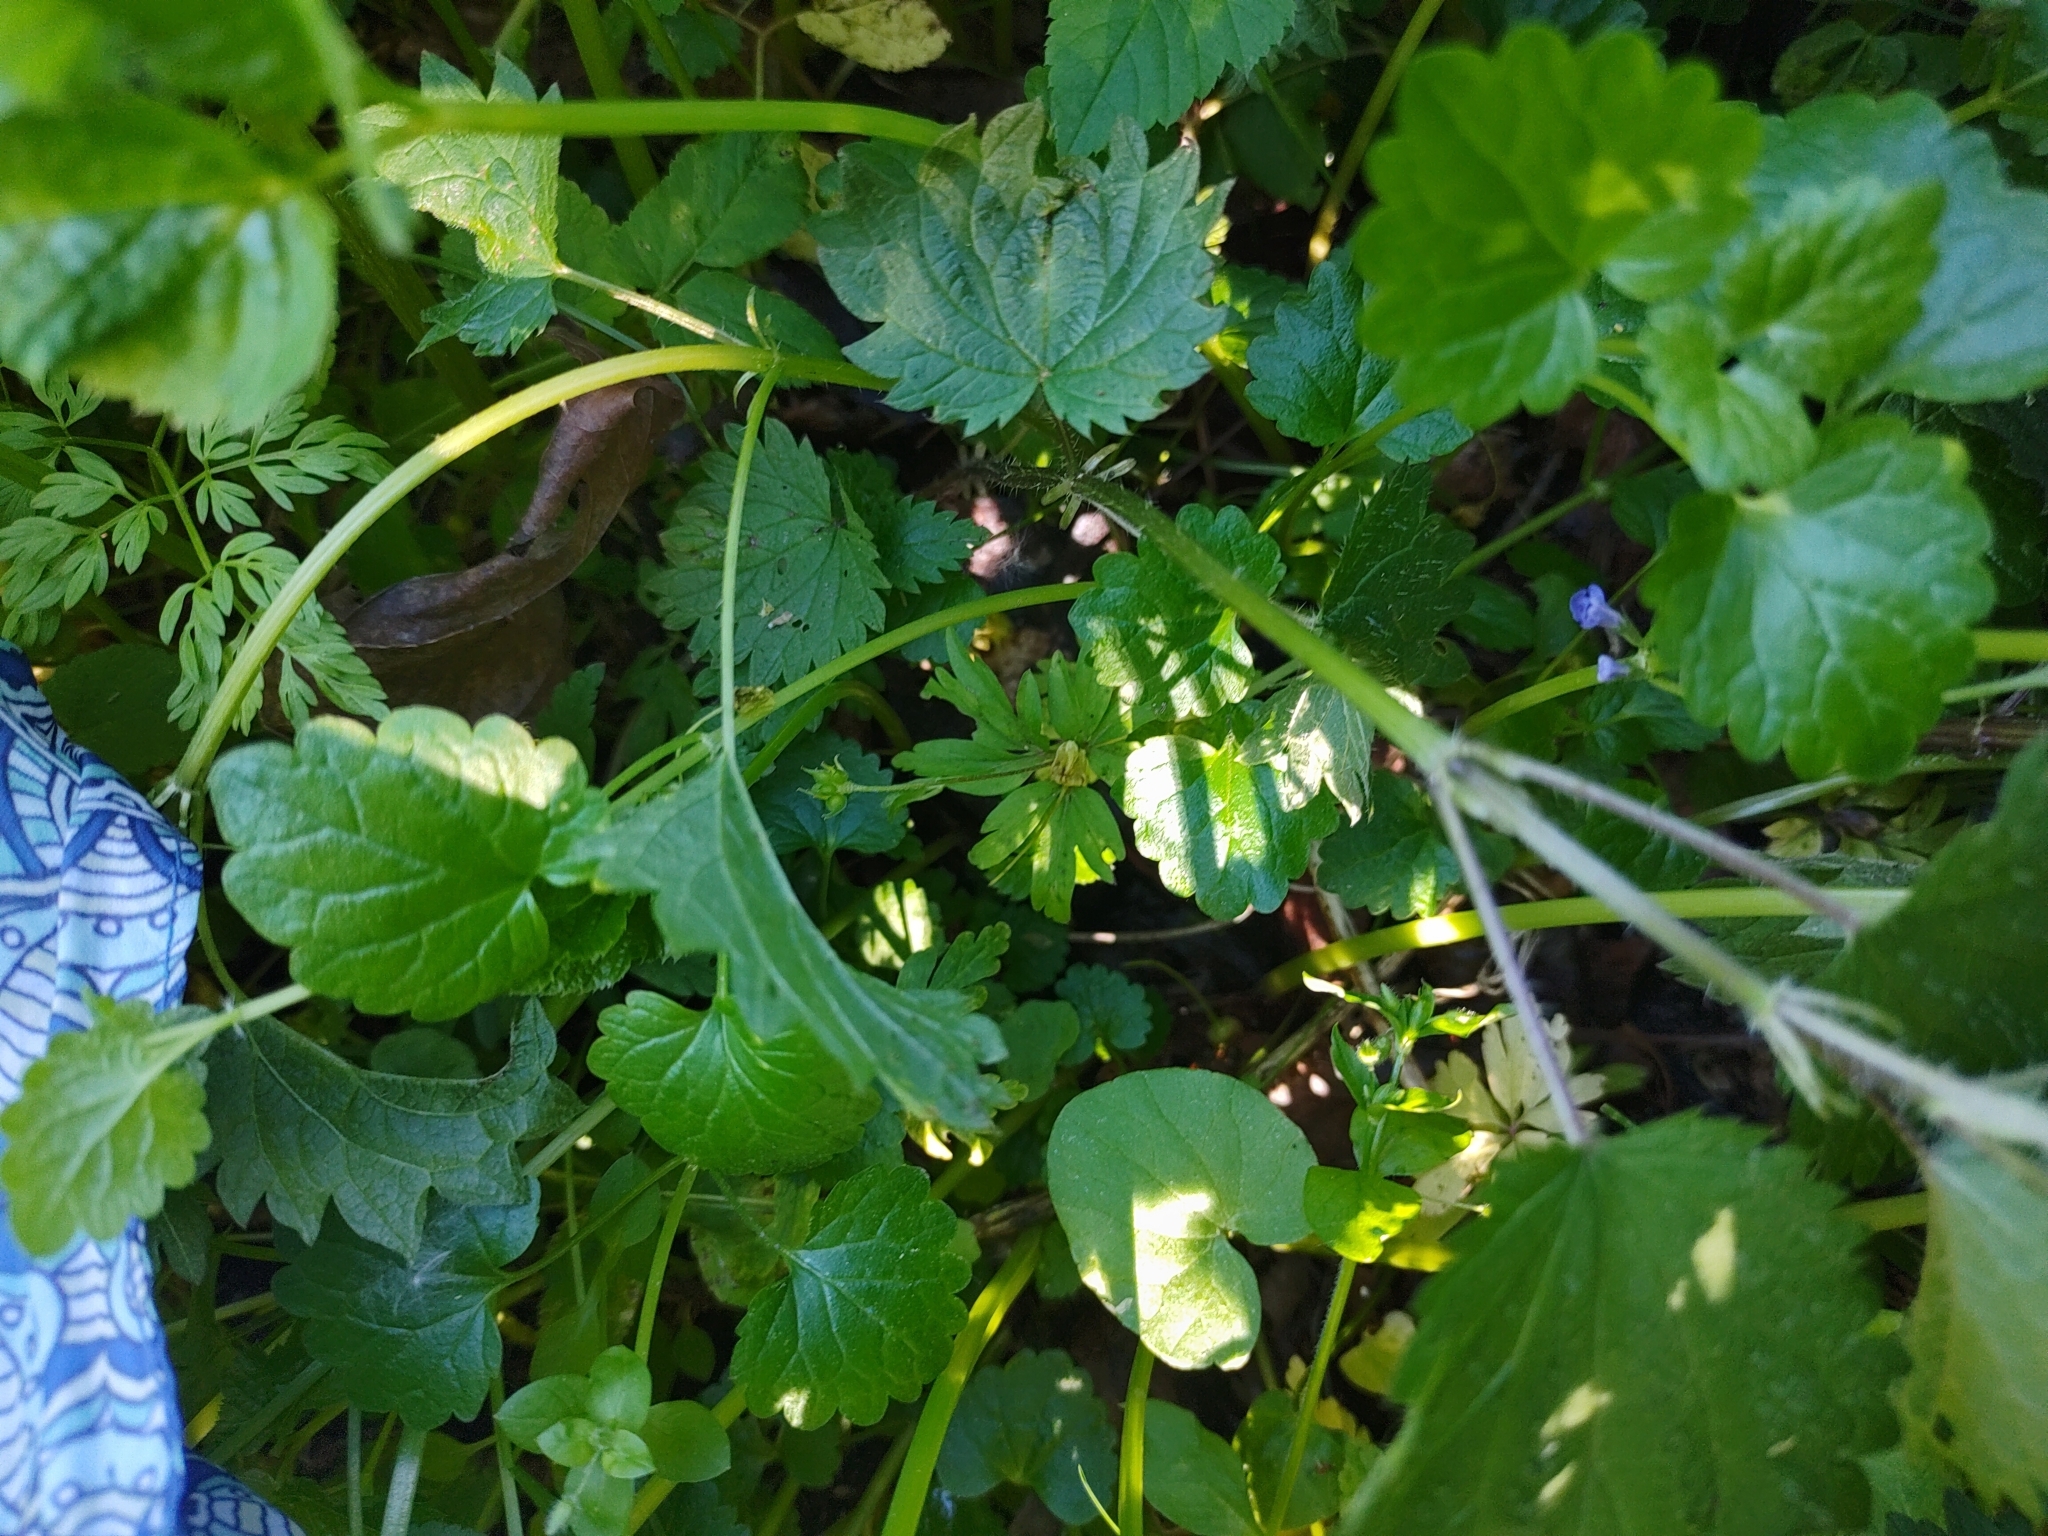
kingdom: Plantae
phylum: Tracheophyta
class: Magnoliopsida
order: Ranunculales
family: Ranunculaceae
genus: Anemone
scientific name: Anemone ranunculoides
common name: Yellow anemone
